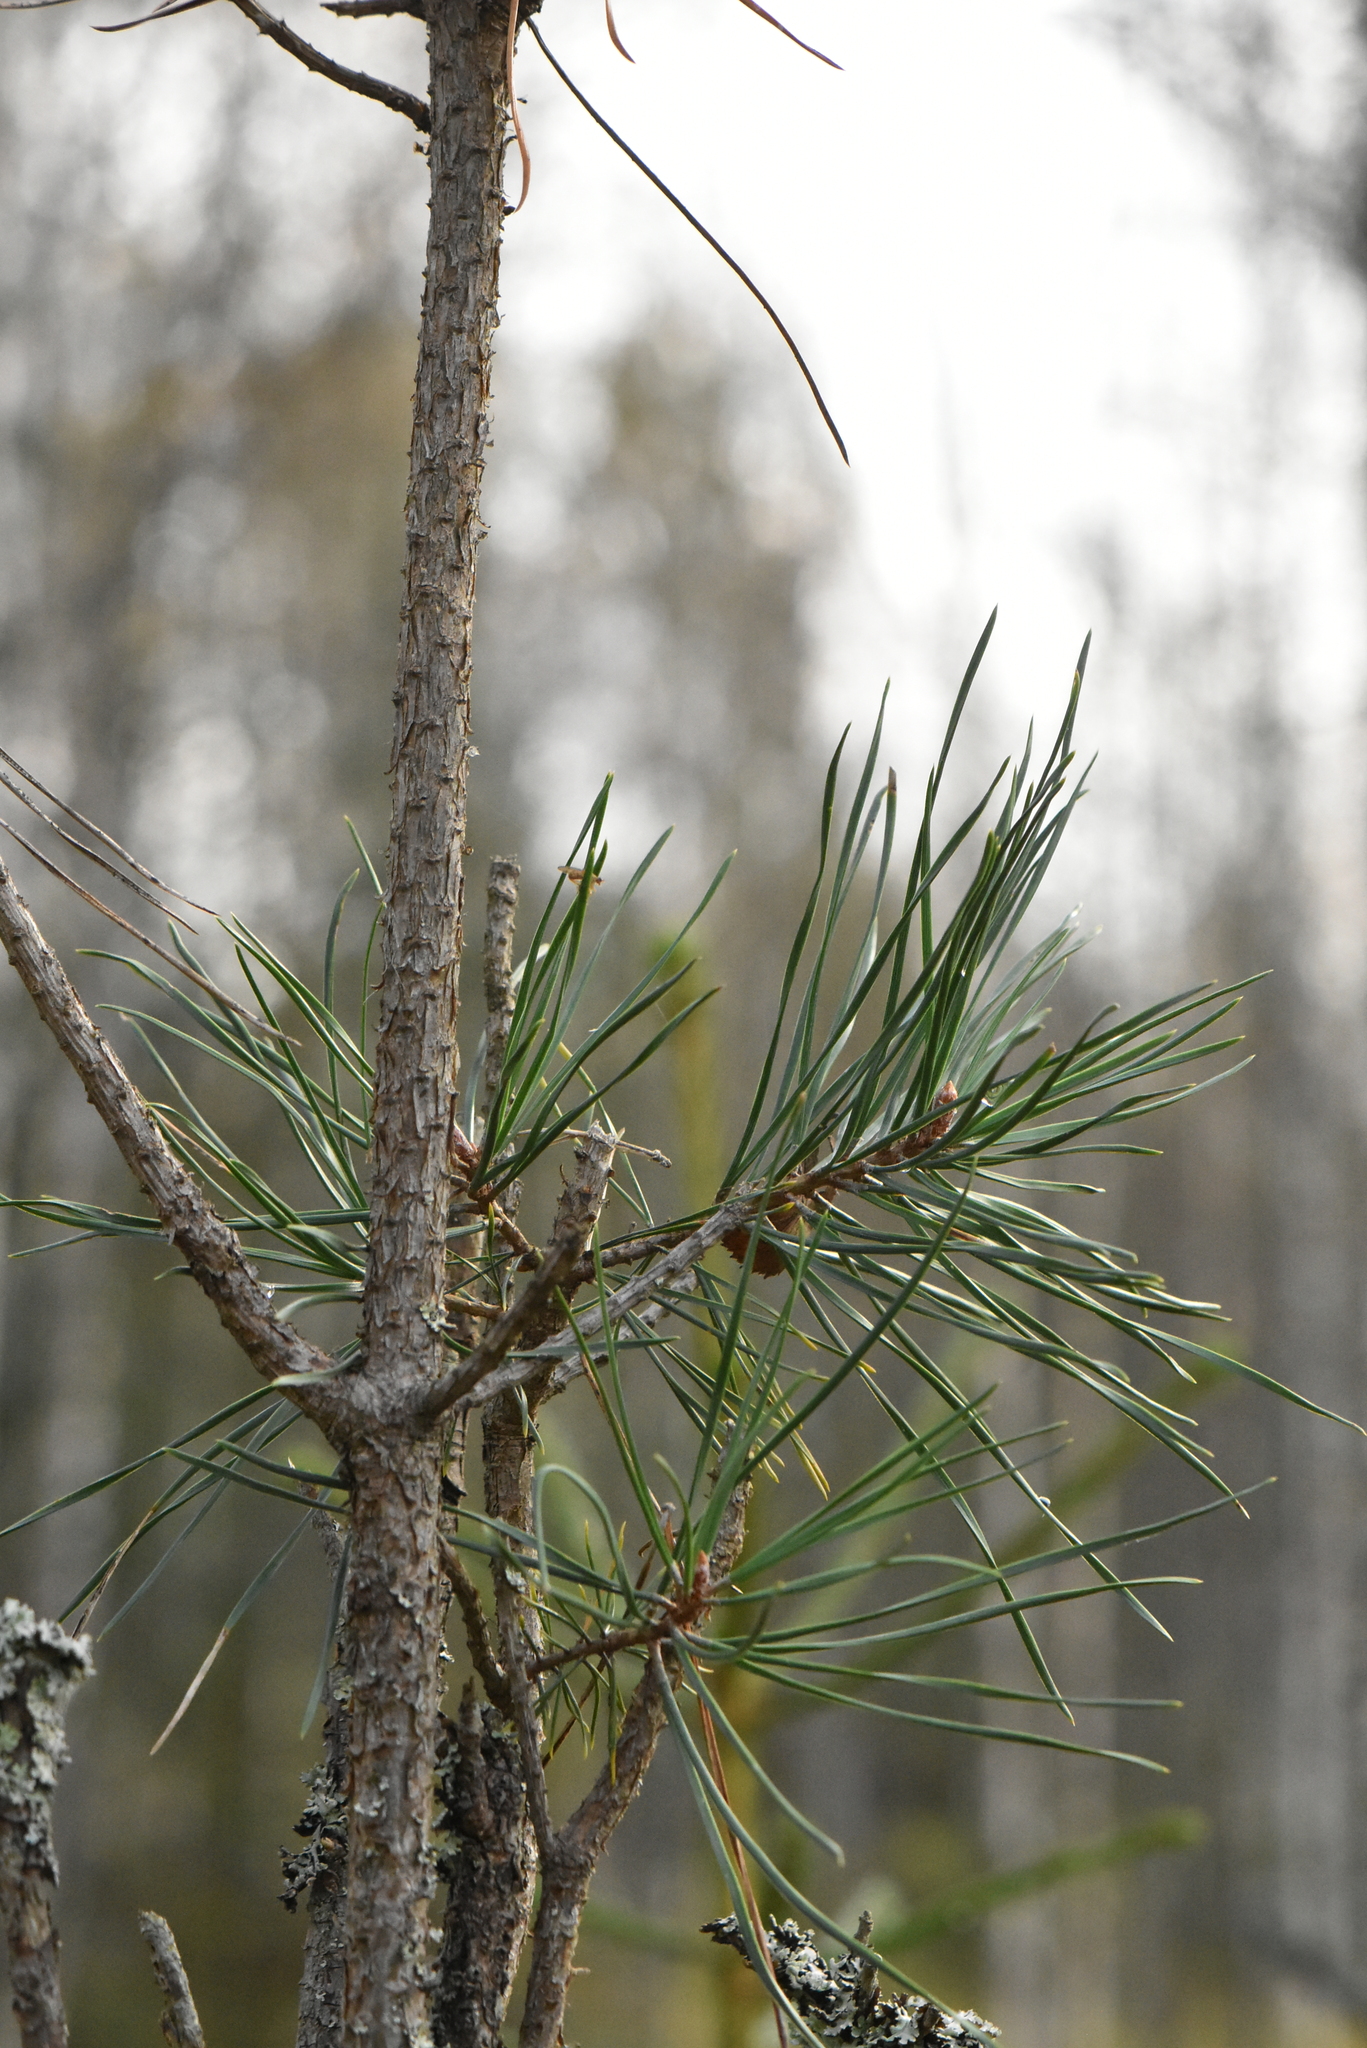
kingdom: Plantae
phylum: Tracheophyta
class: Pinopsida
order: Pinales
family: Pinaceae
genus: Pinus
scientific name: Pinus sylvestris
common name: Scots pine
